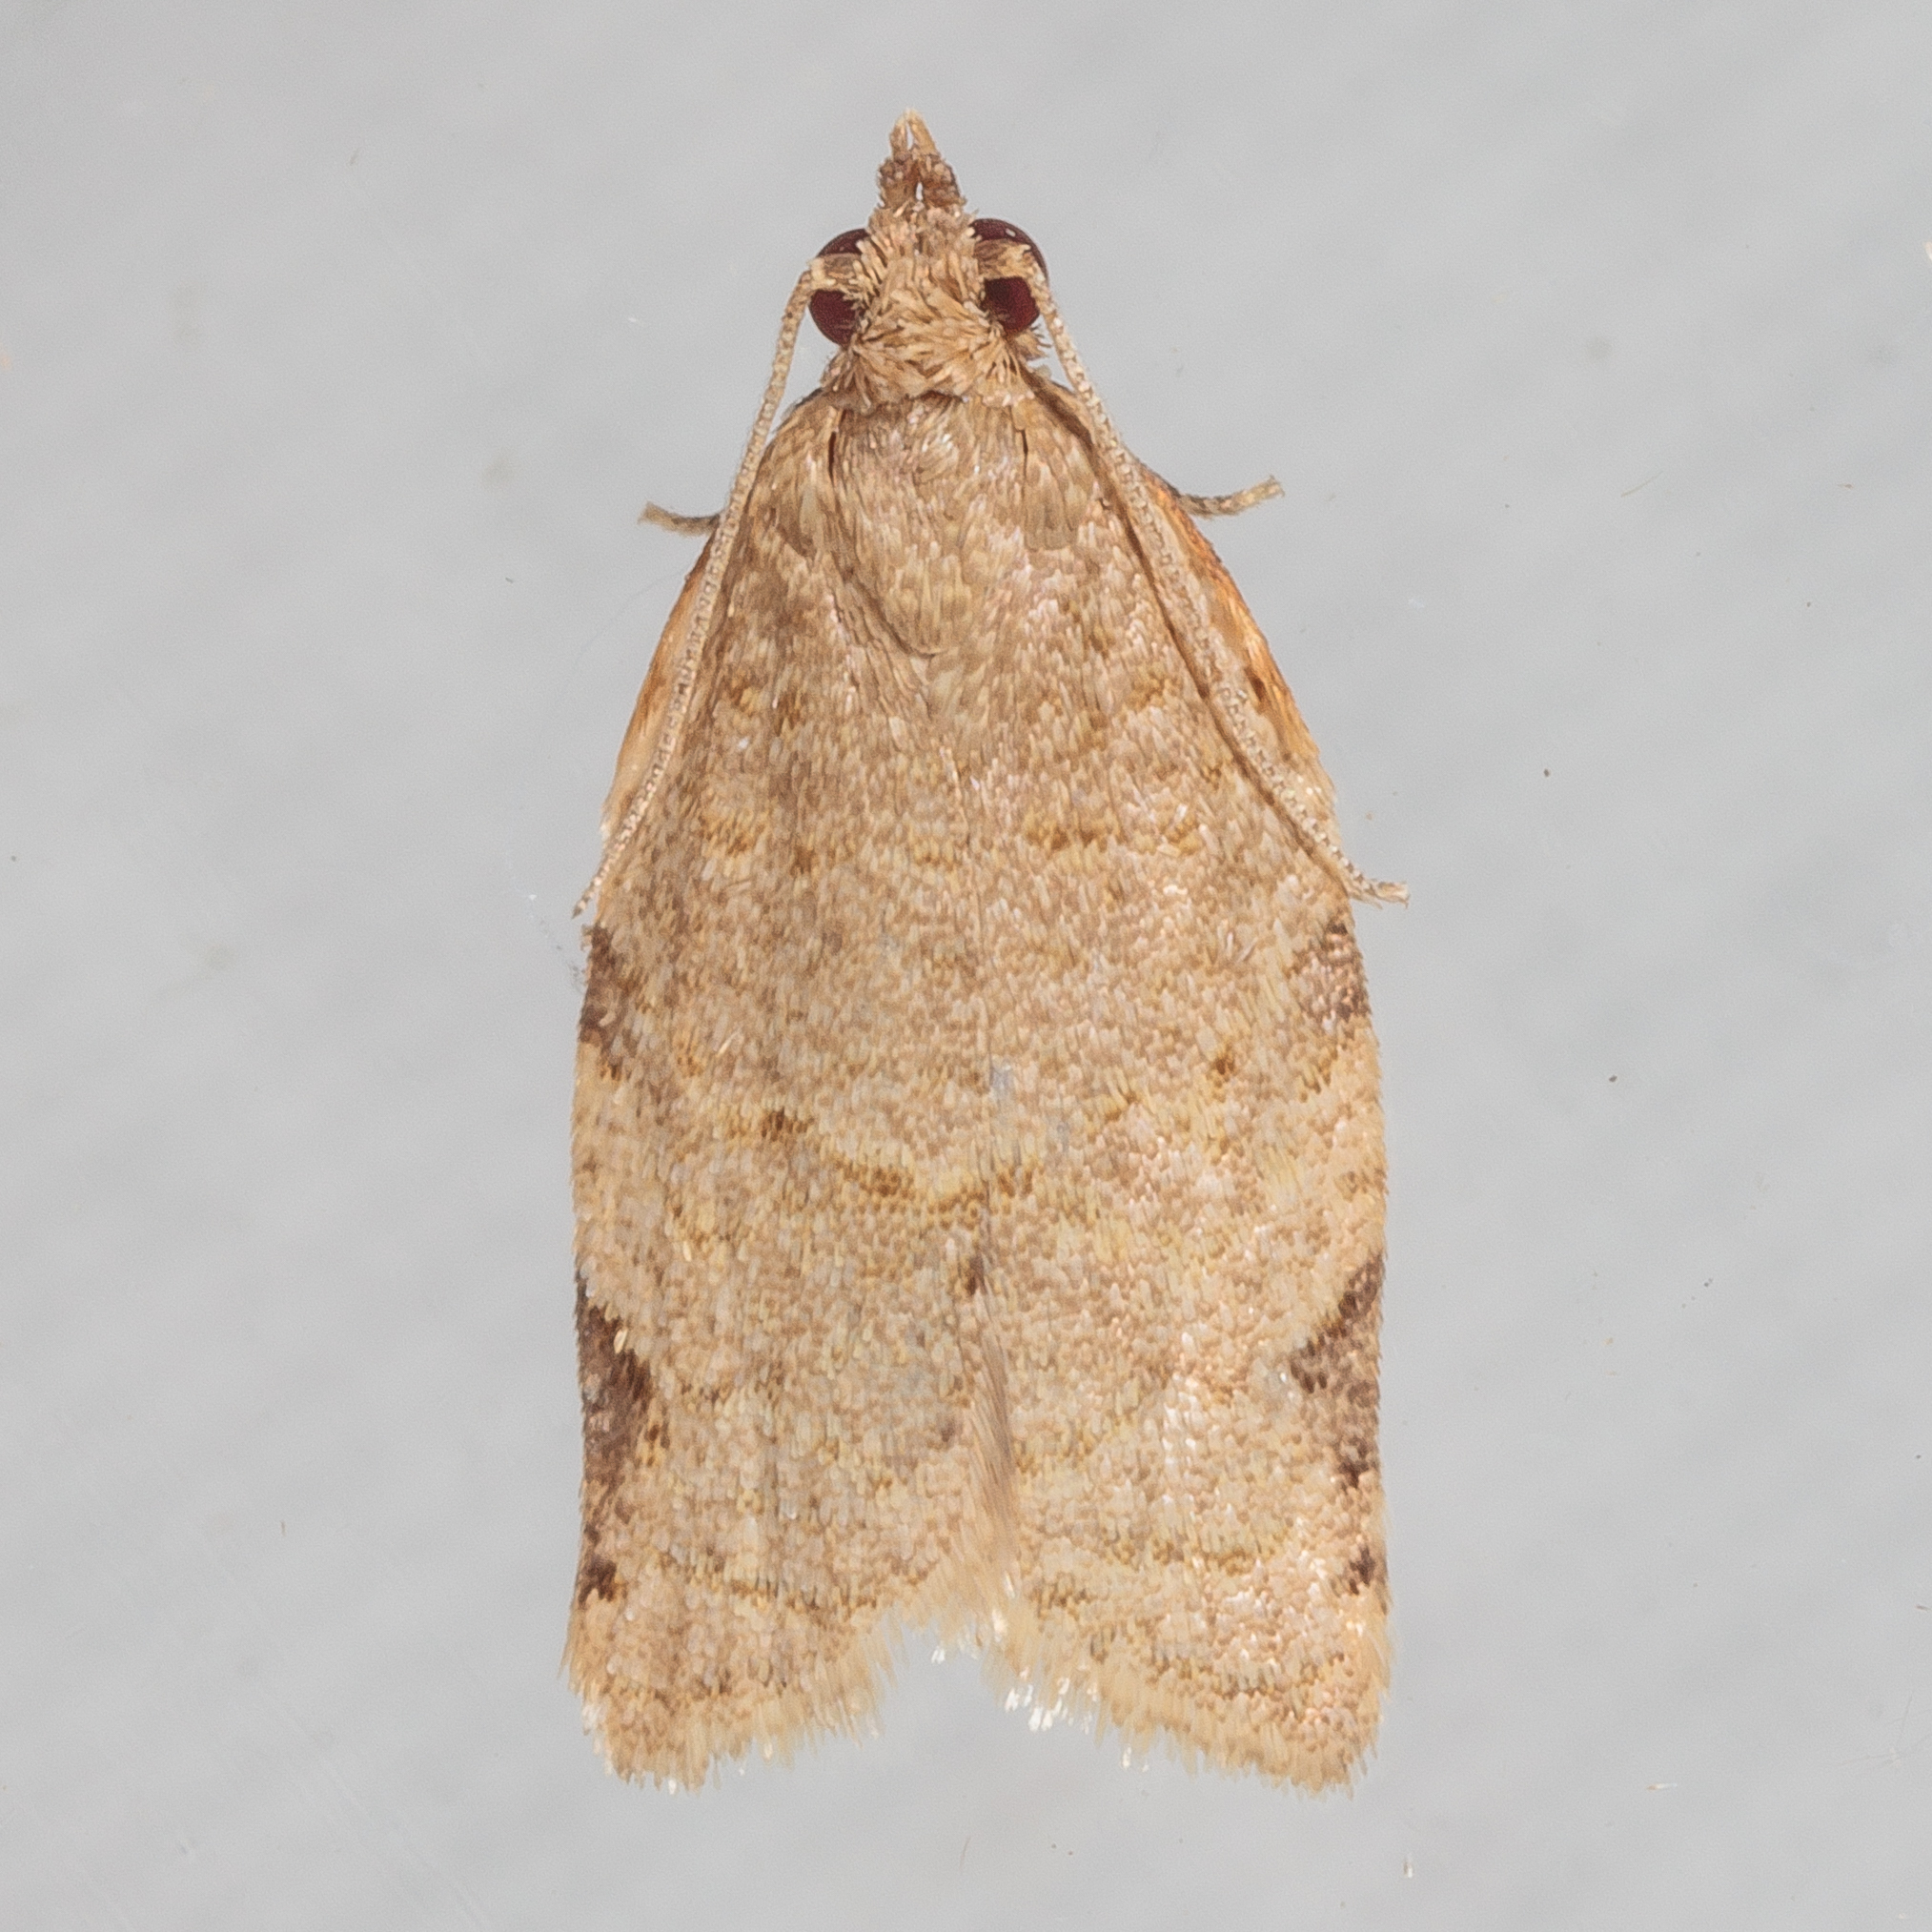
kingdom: Animalia
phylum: Arthropoda
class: Insecta
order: Lepidoptera
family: Tortricidae
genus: Clepsis
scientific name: Clepsis virescana
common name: Greenish apple moth
